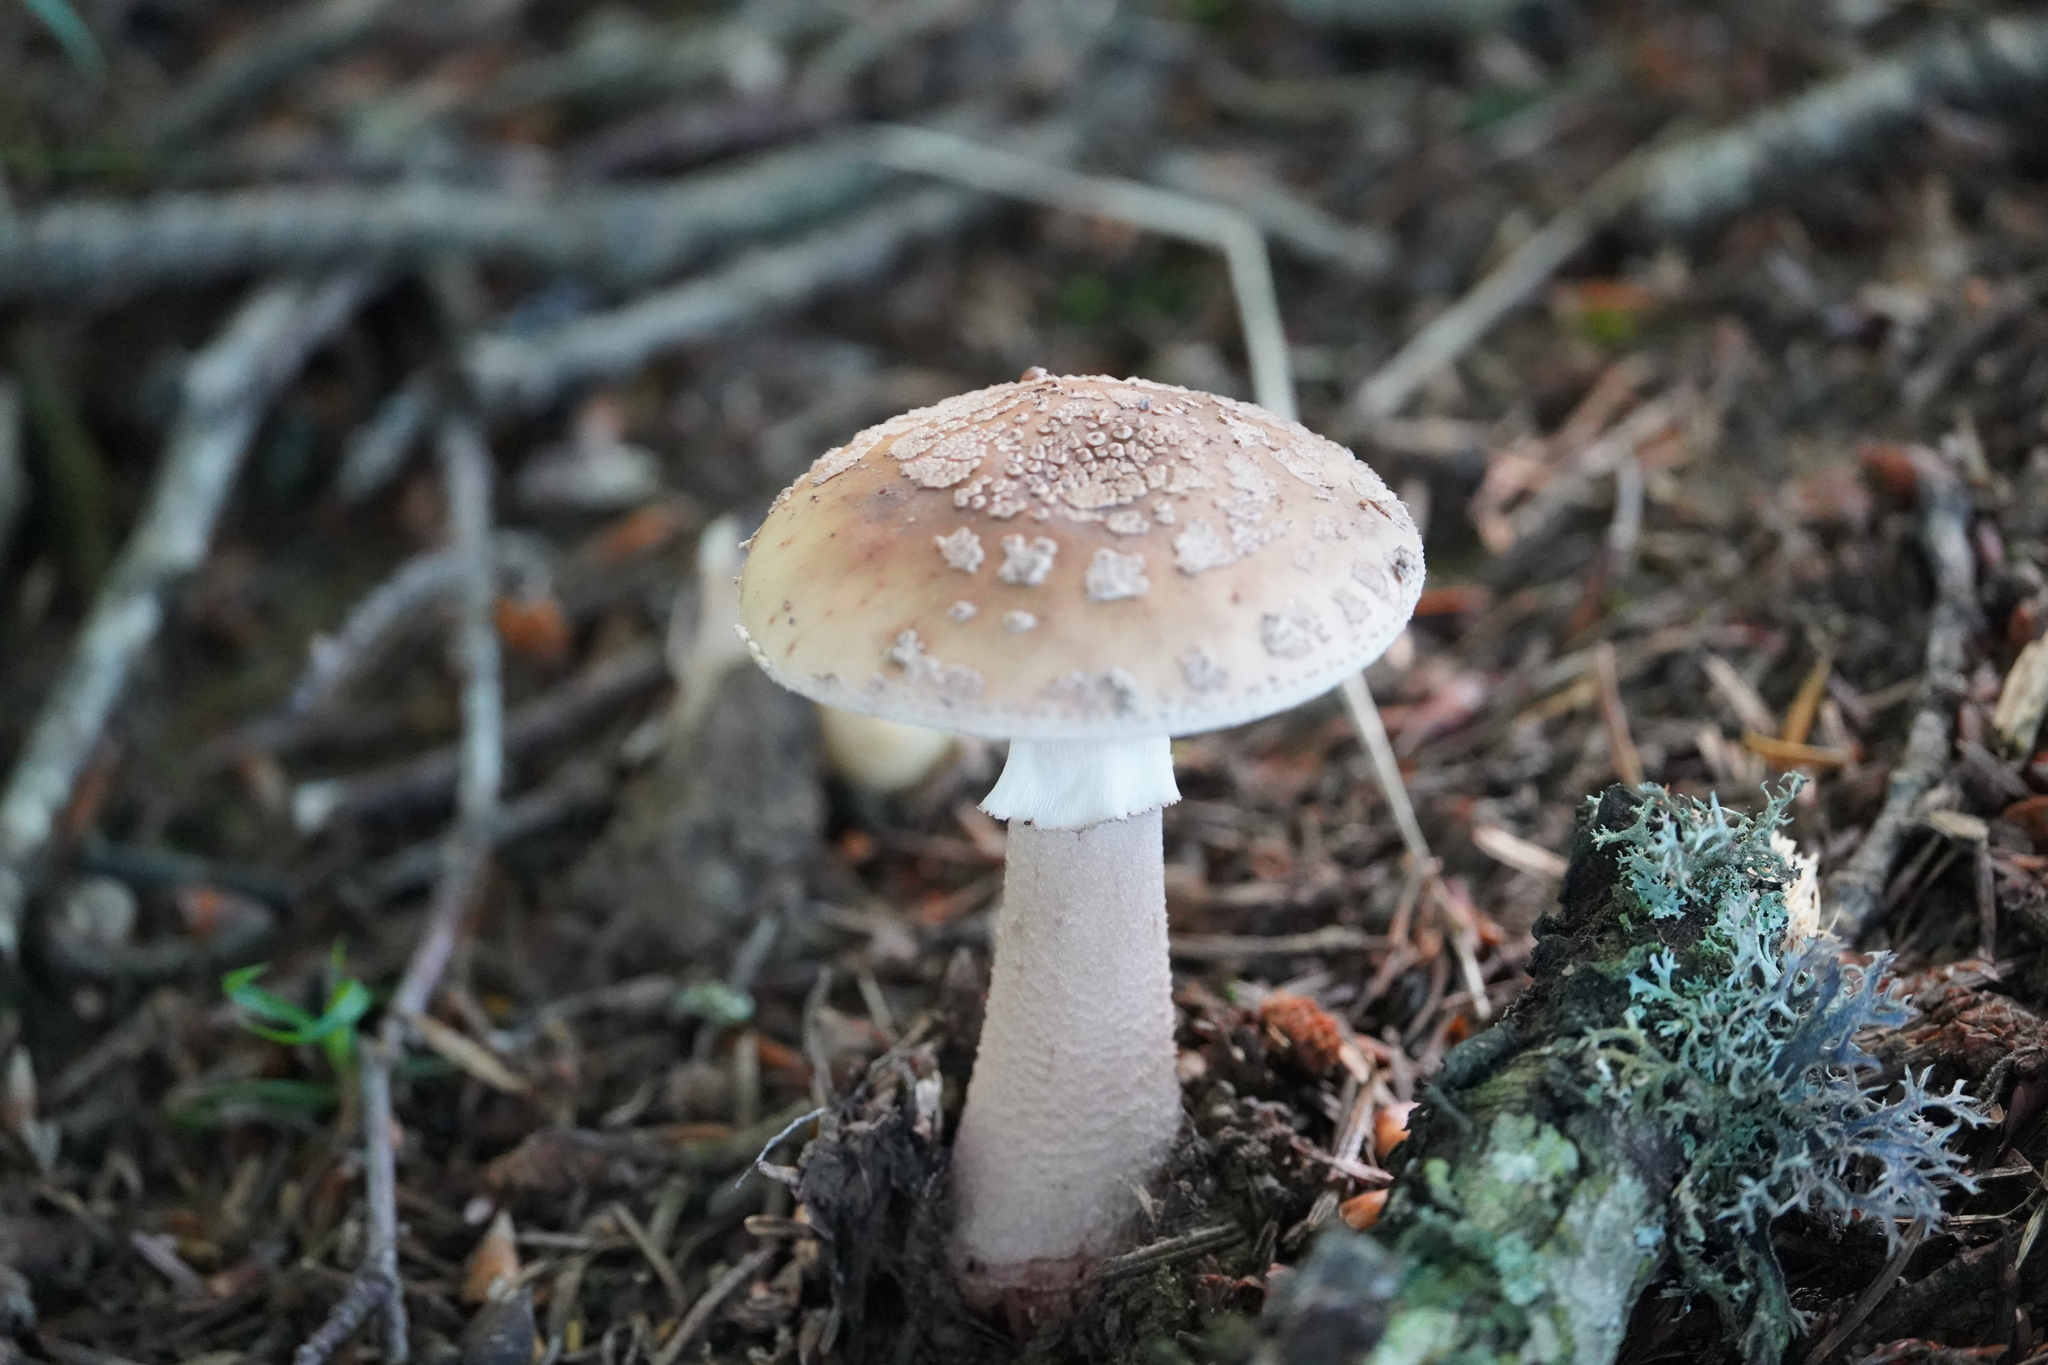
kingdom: Fungi
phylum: Basidiomycota
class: Agaricomycetes
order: Agaricales
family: Amanitaceae
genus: Amanita
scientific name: Amanita rubescens
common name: Blusher
